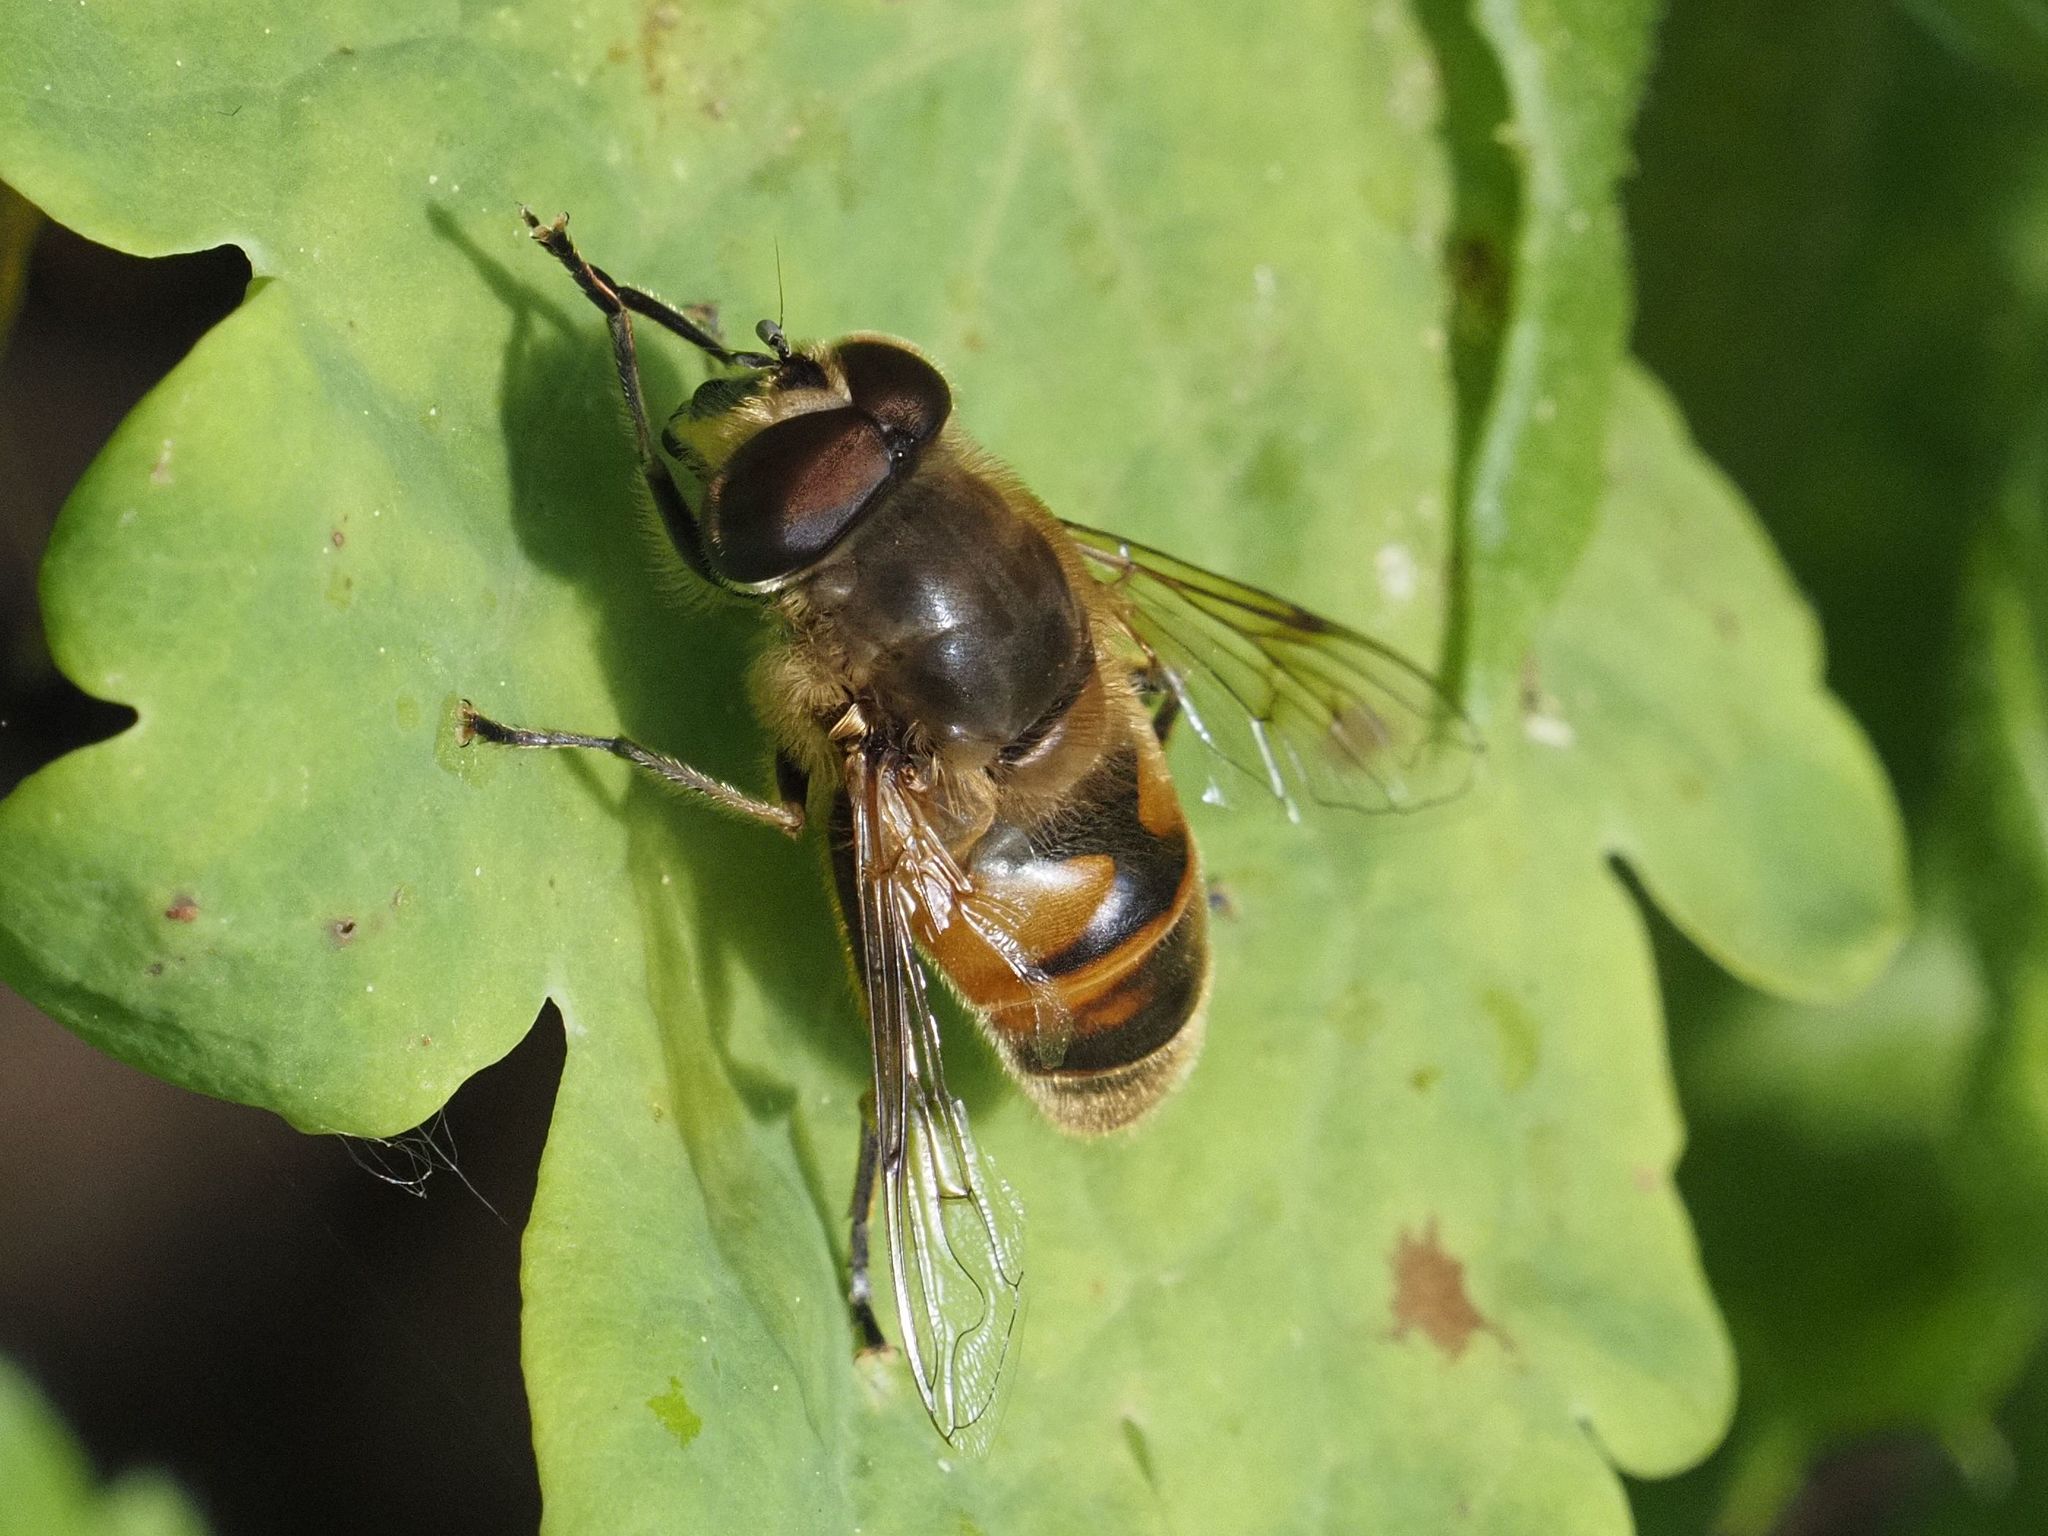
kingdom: Animalia
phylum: Arthropoda
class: Insecta
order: Diptera
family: Syrphidae
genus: Eristalis
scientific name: Eristalis tenax
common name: Drone fly
